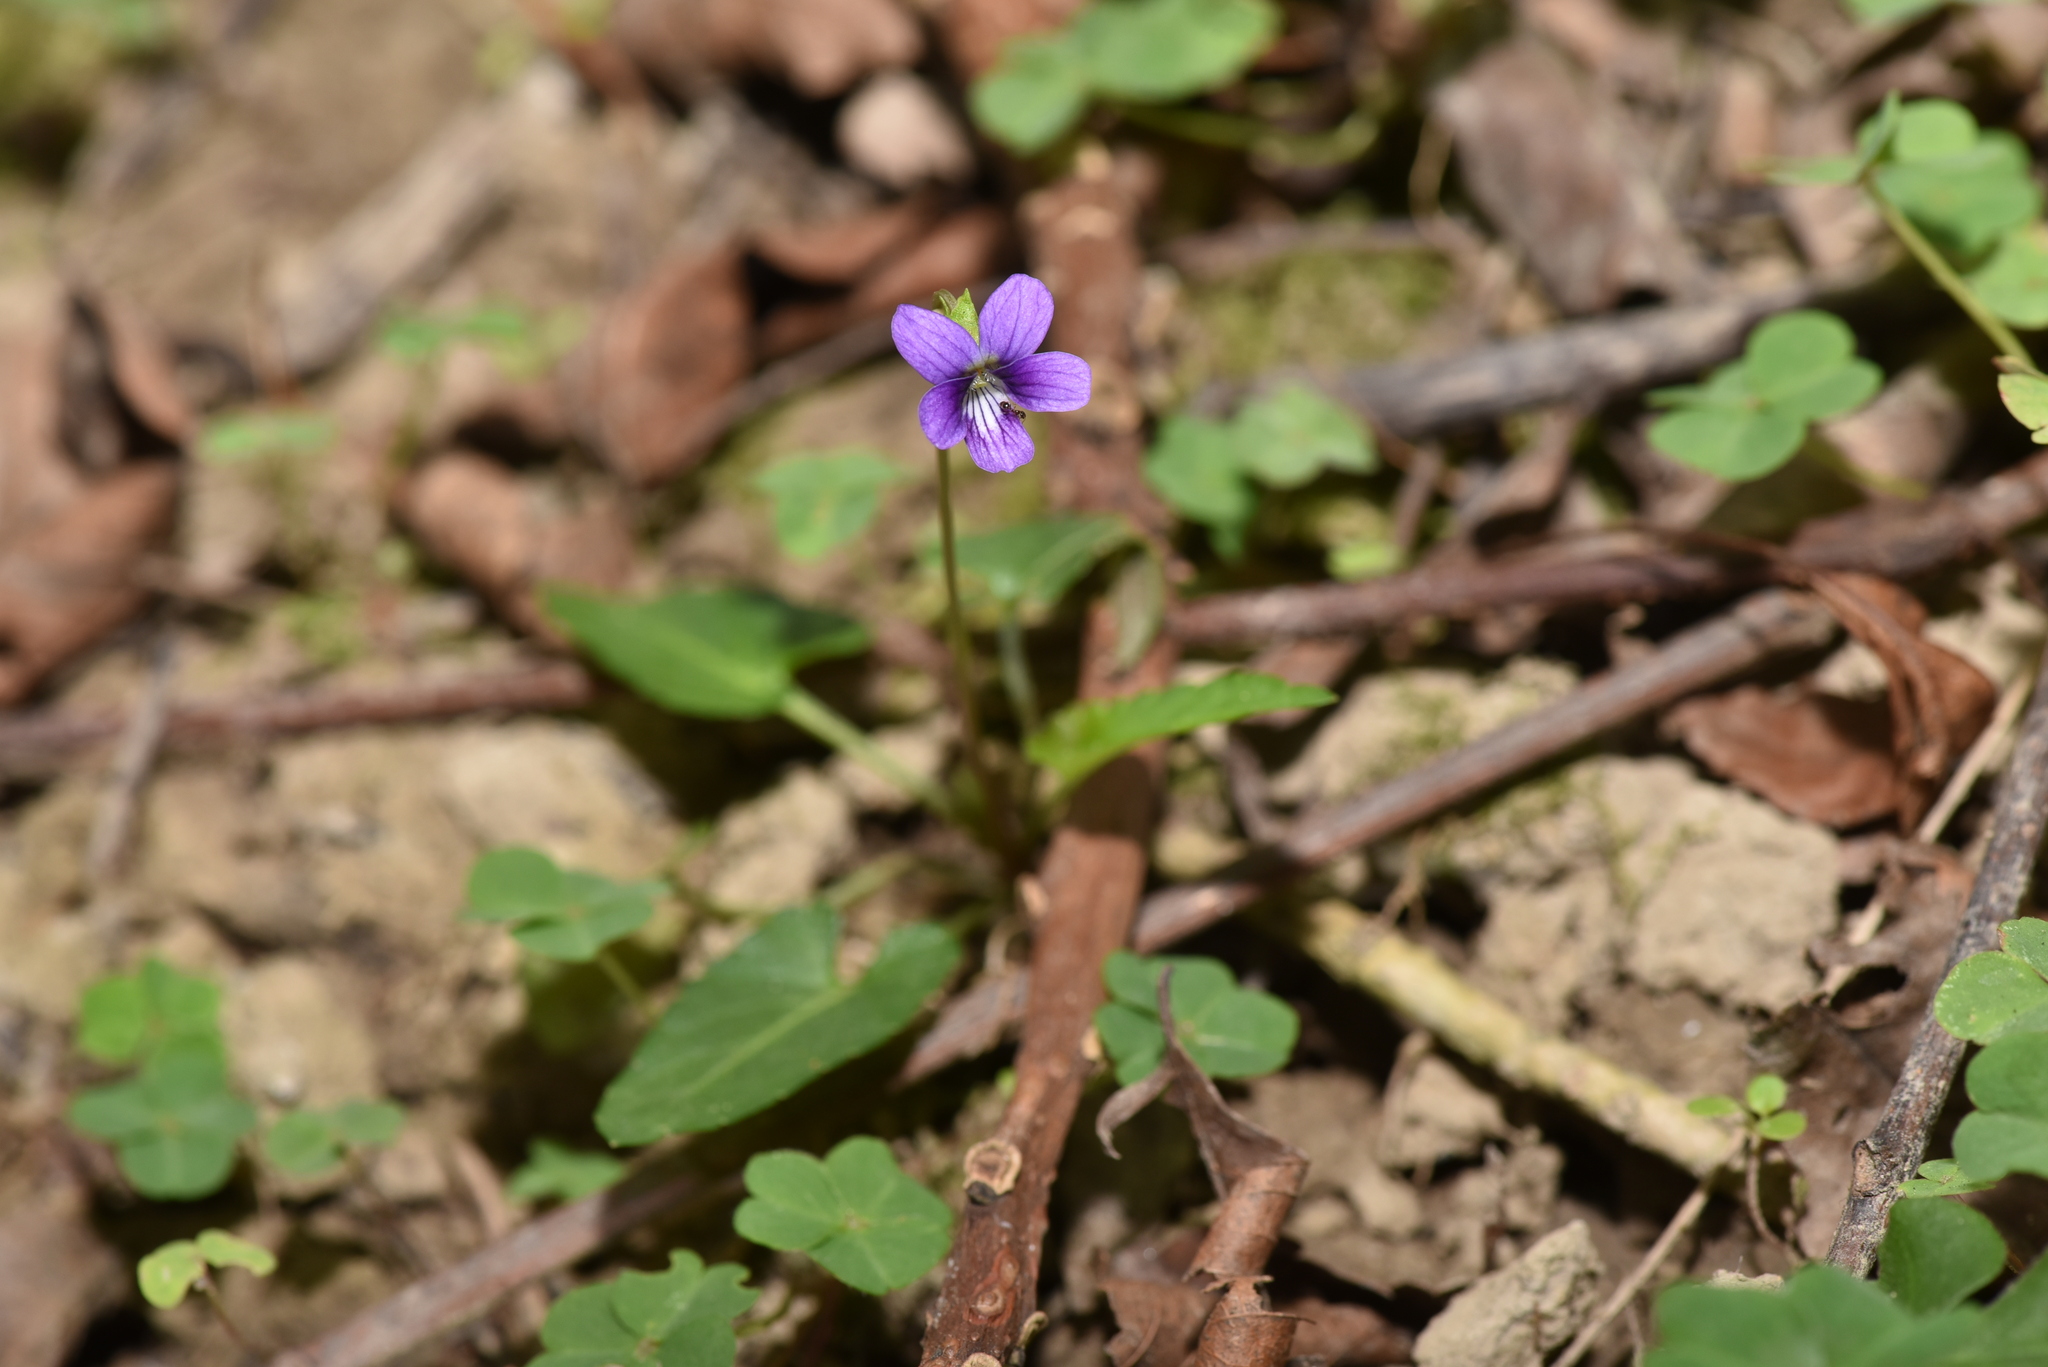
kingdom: Plantae
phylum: Tracheophyta
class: Magnoliopsida
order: Malpighiales
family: Violaceae
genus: Viola
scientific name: Viola inconspicua
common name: Long sepal violet
